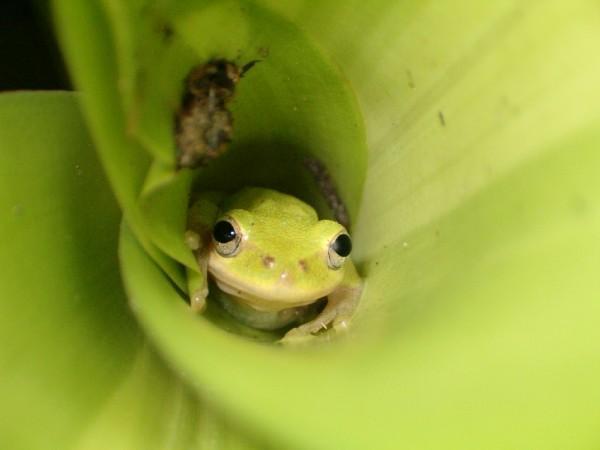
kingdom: Animalia
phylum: Chordata
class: Amphibia
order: Anura
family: Hylidae
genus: Dryophytes
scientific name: Dryophytes squirellus
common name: Squirrel treefrog
